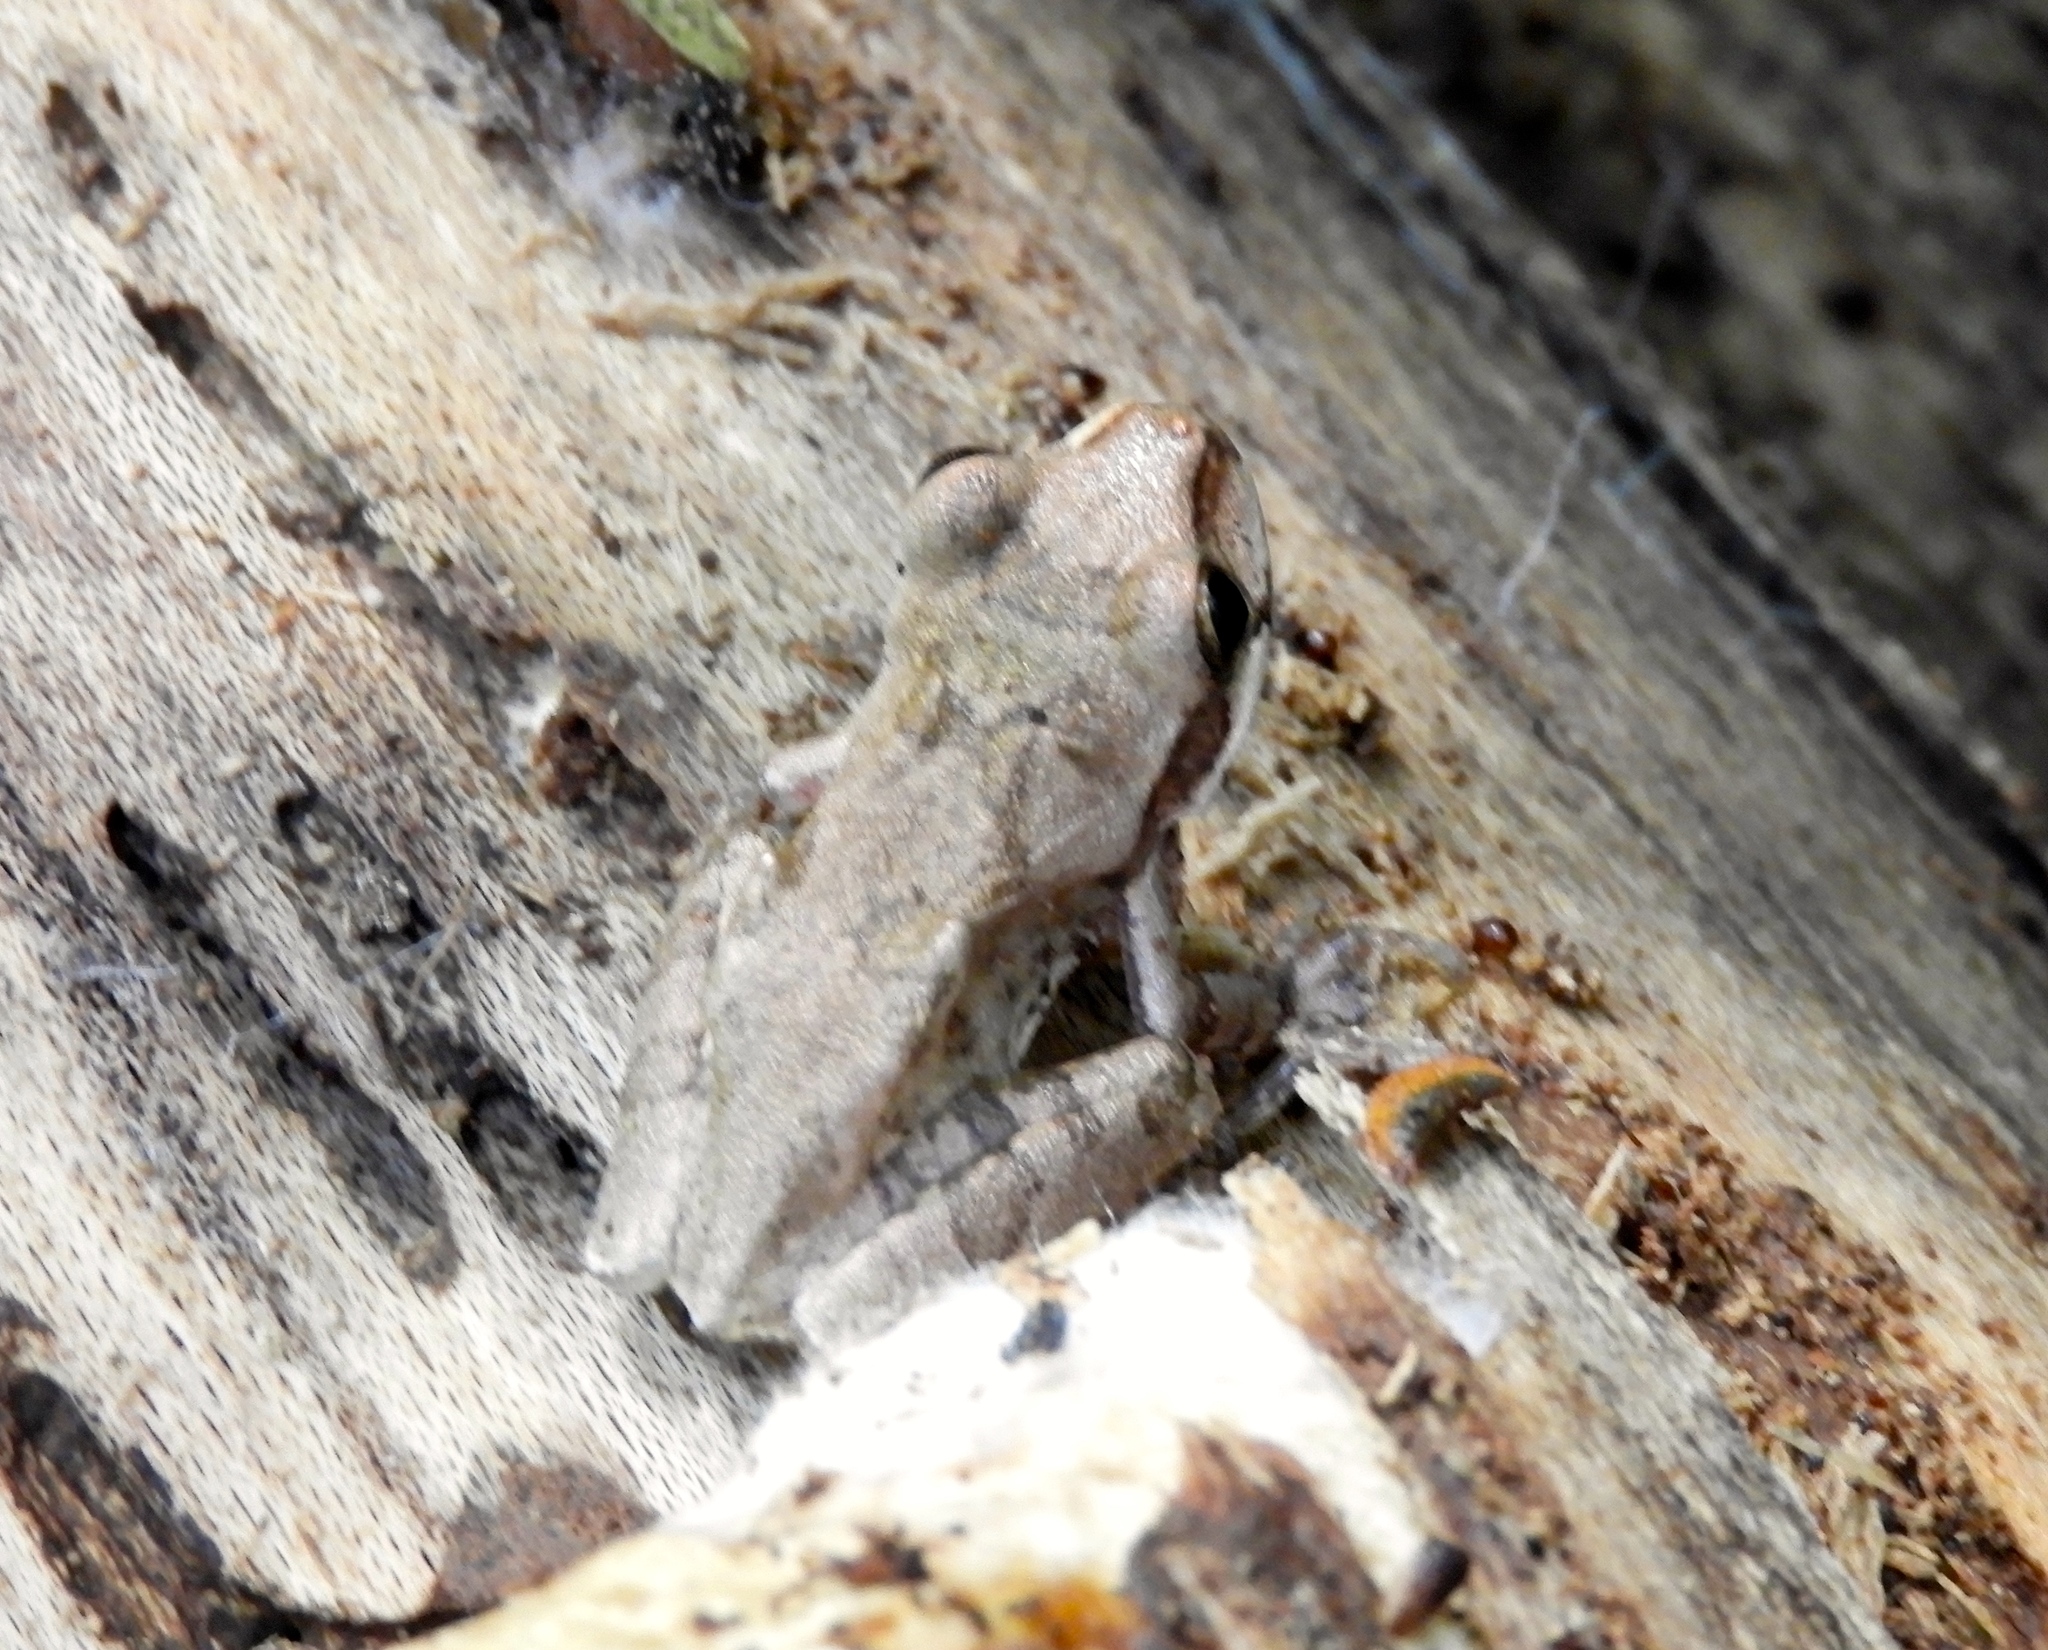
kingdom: Animalia
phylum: Chordata
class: Amphibia
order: Anura
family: Hylidae
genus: Smilisca
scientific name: Smilisca baudinii
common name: Mexican smilisca
